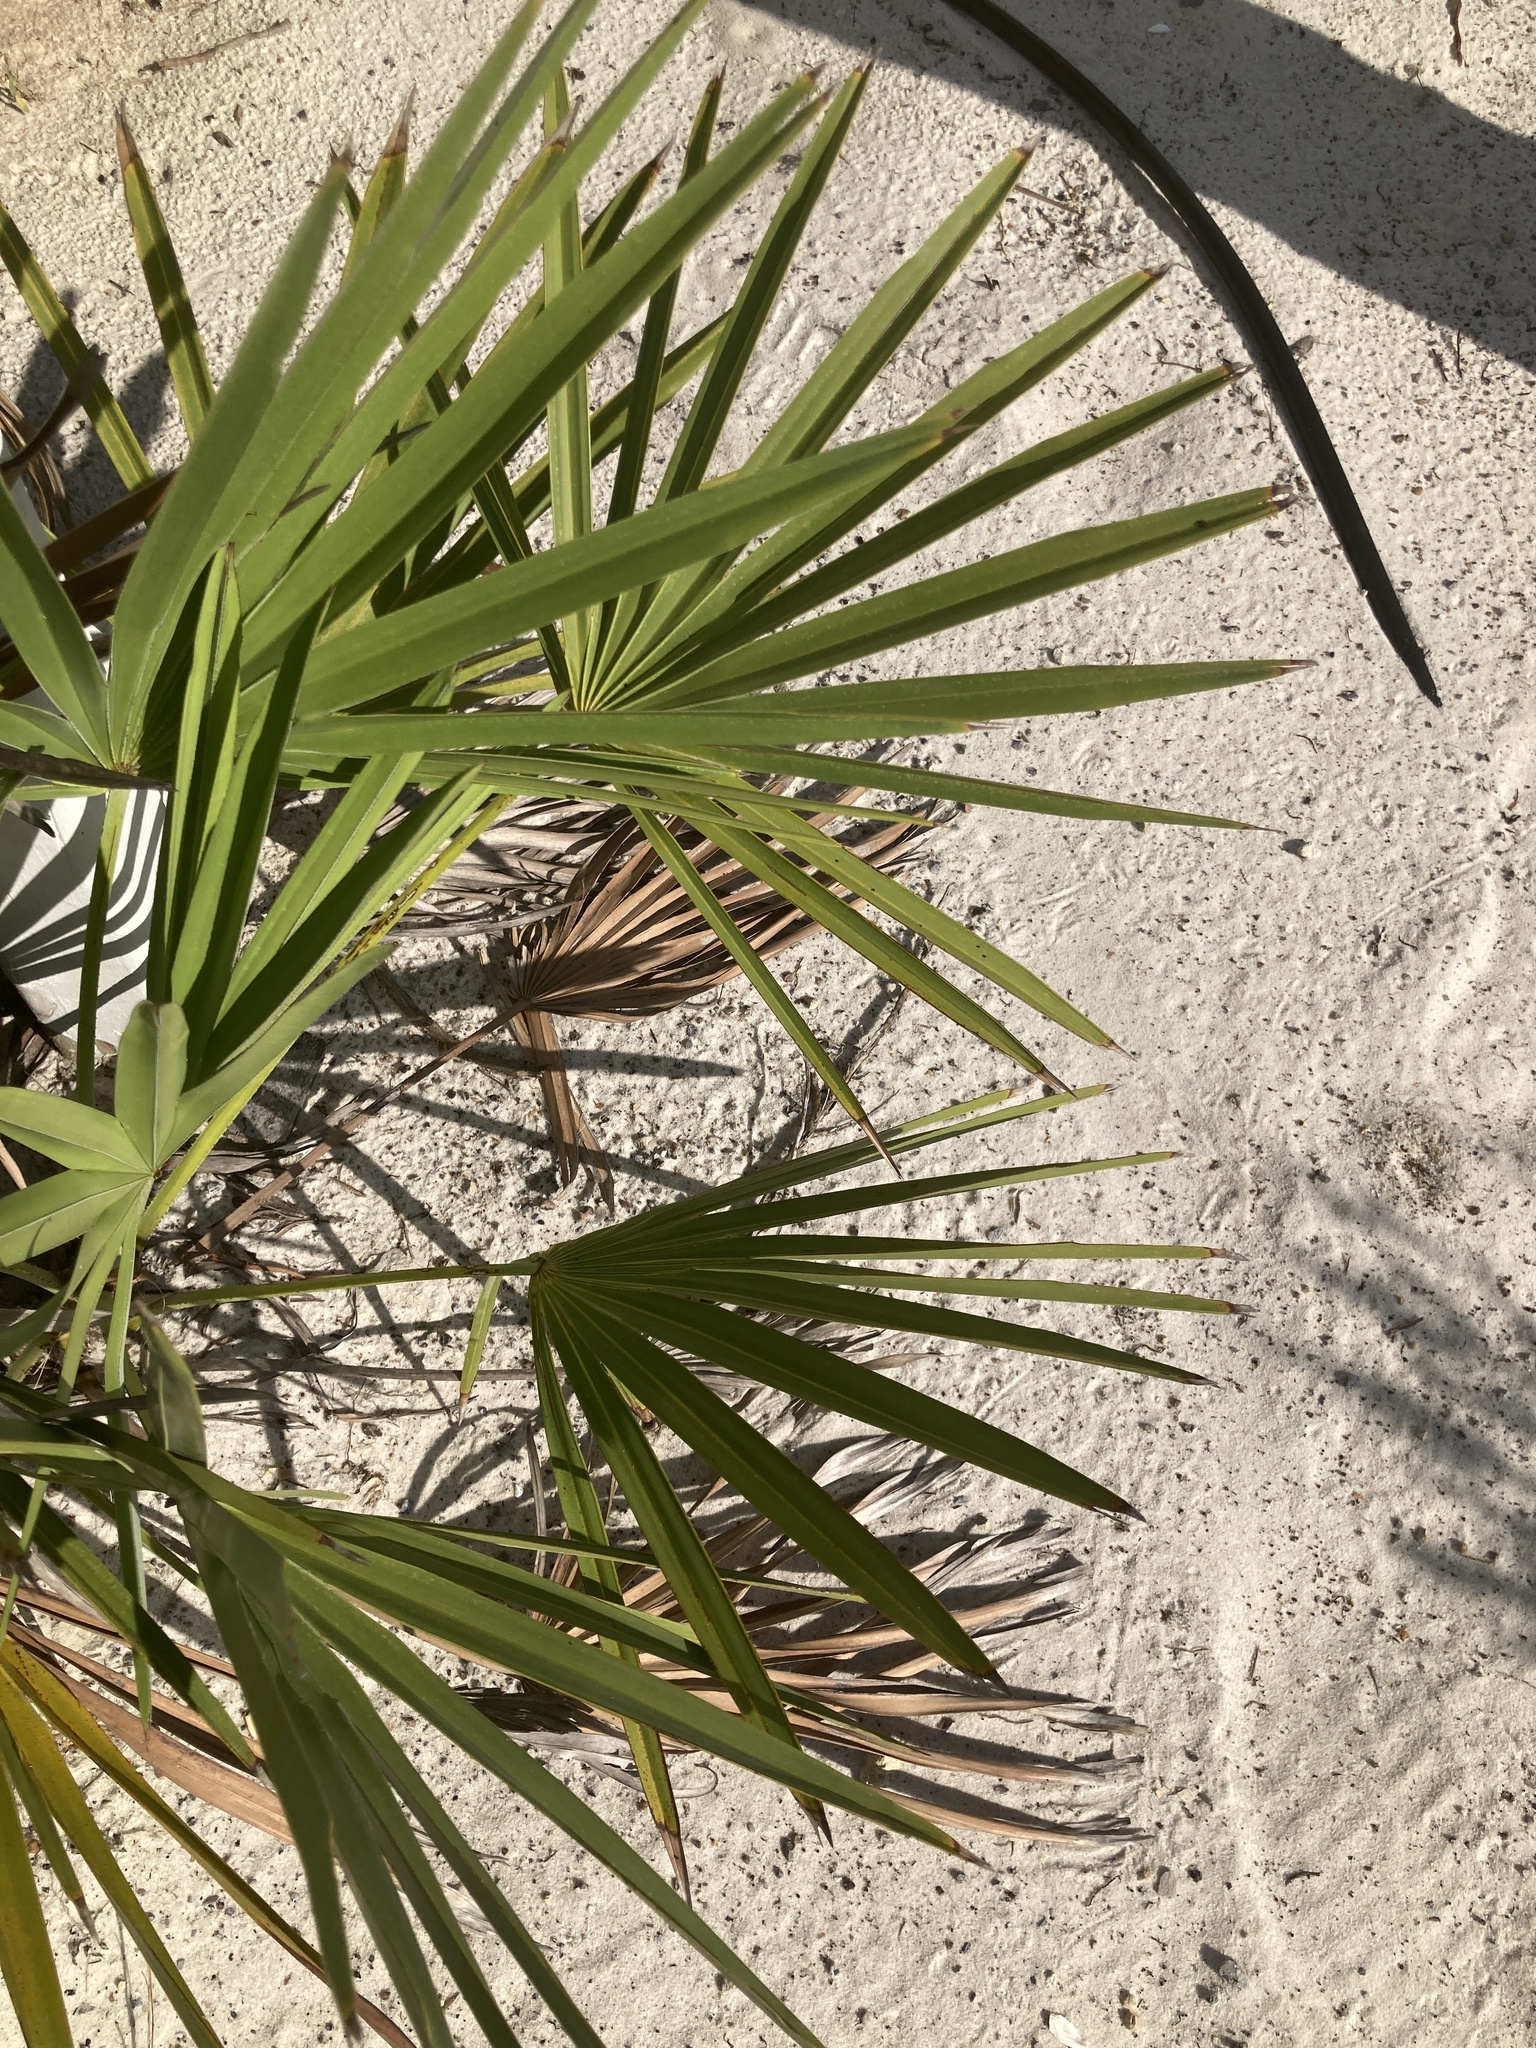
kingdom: Plantae
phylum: Tracheophyta
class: Liliopsida
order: Arecales
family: Arecaceae
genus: Serenoa
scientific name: Serenoa repens
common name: Saw-palmetto
